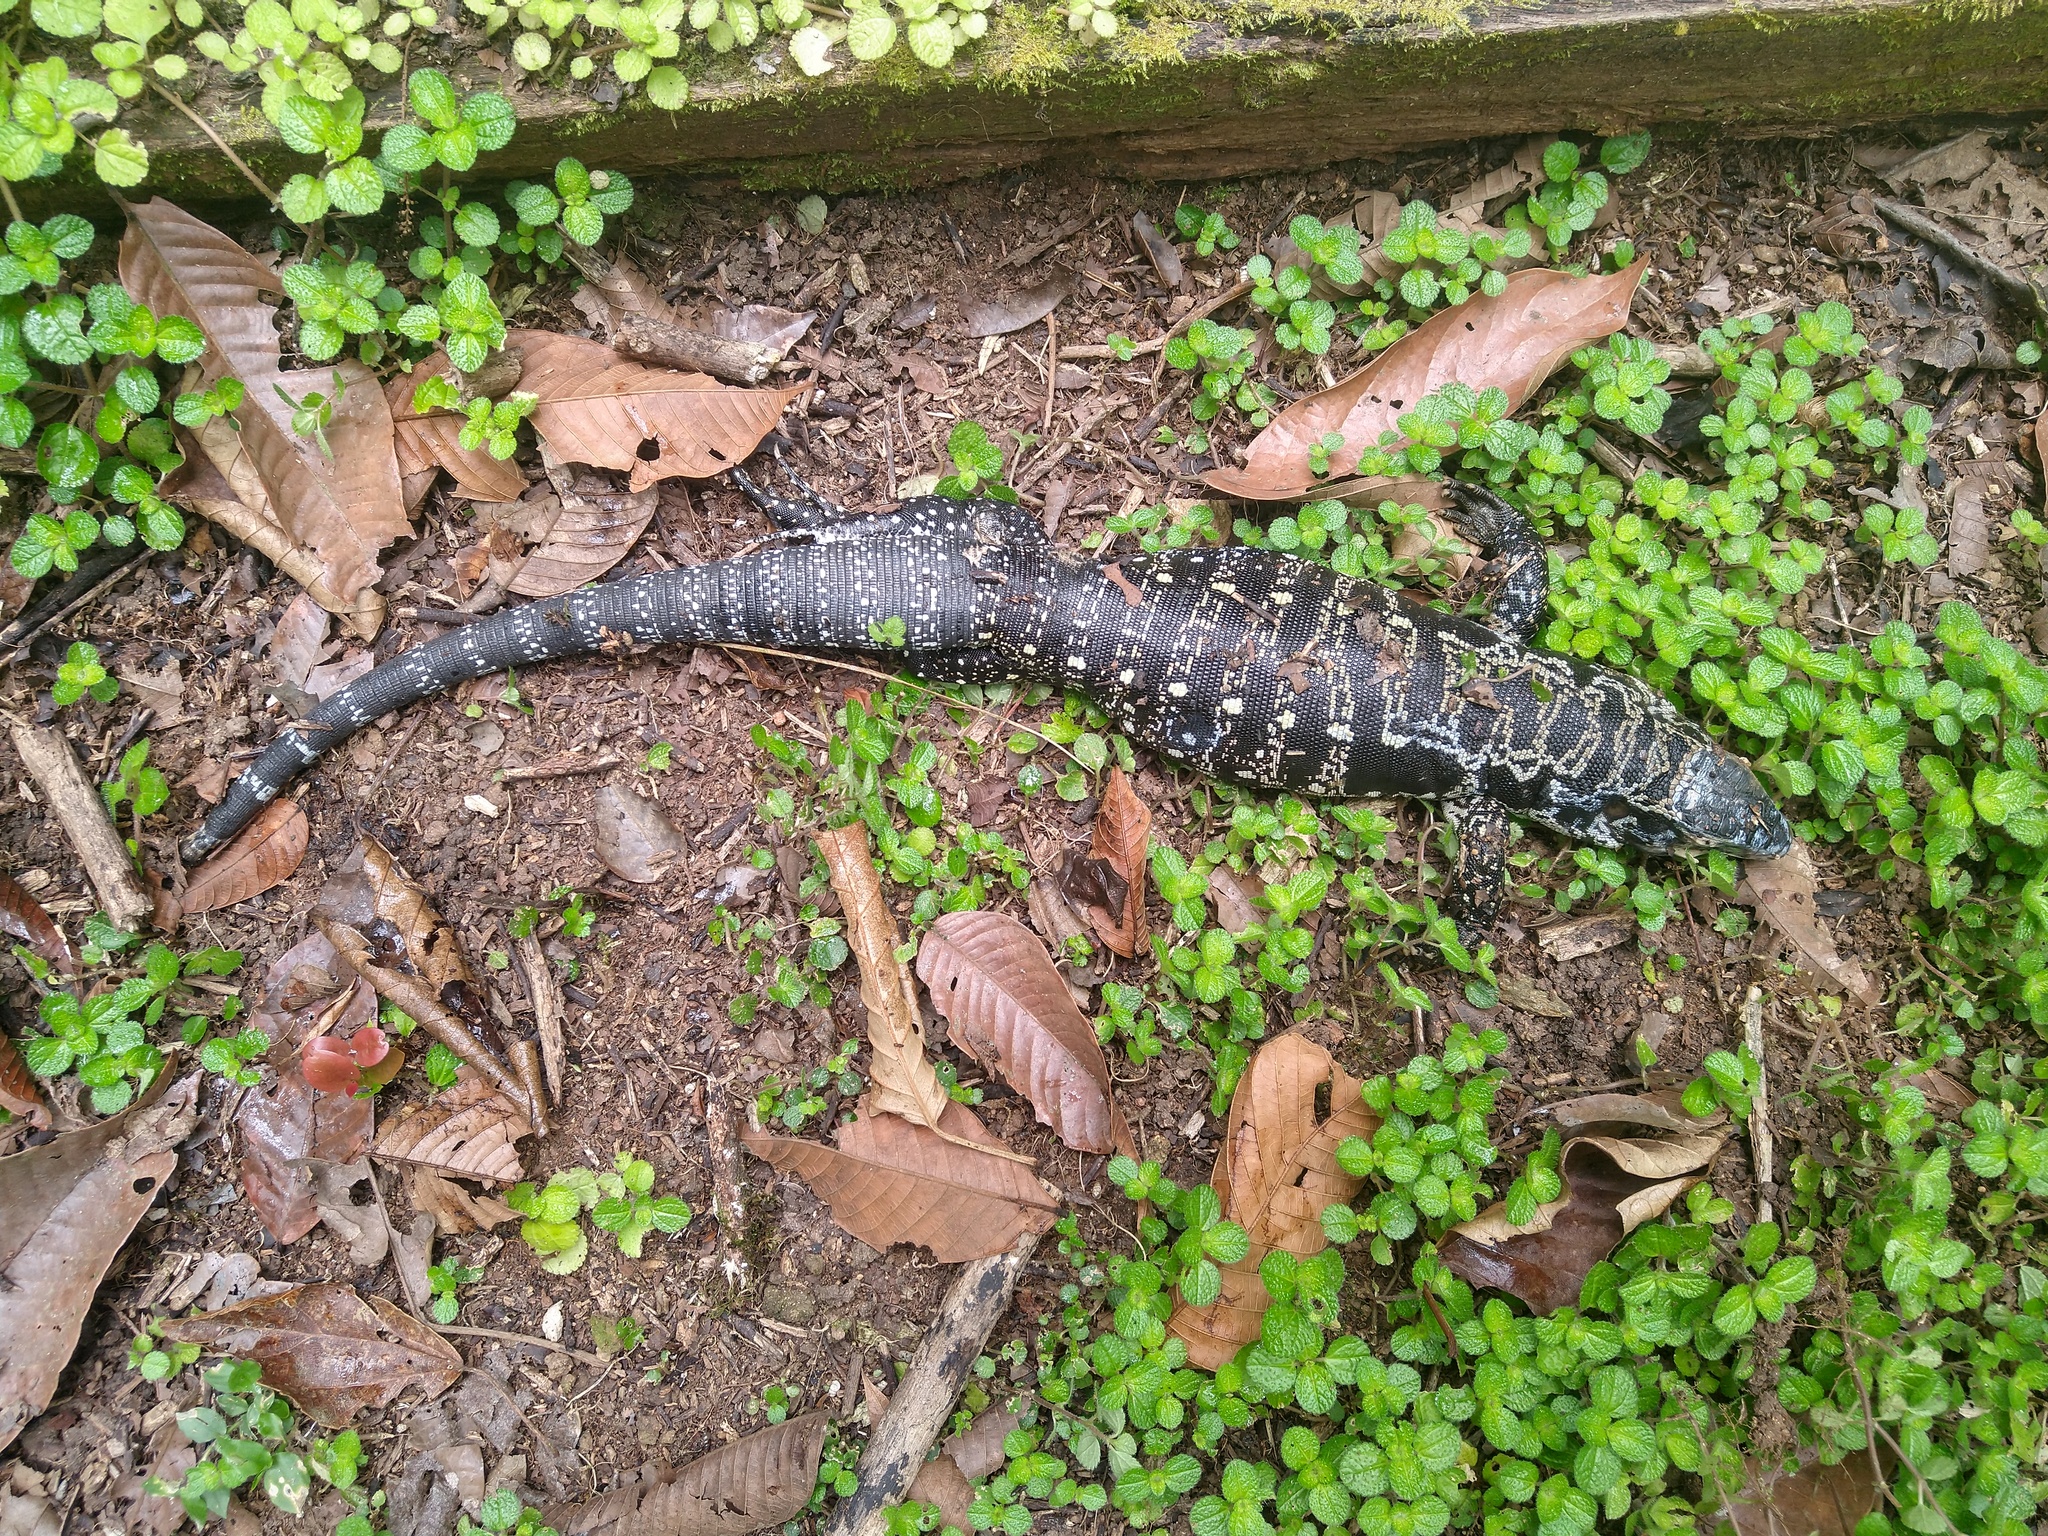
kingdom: Animalia
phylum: Chordata
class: Squamata
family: Teiidae
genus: Salvator
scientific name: Salvator merianae
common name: Argentine black and white tegu
